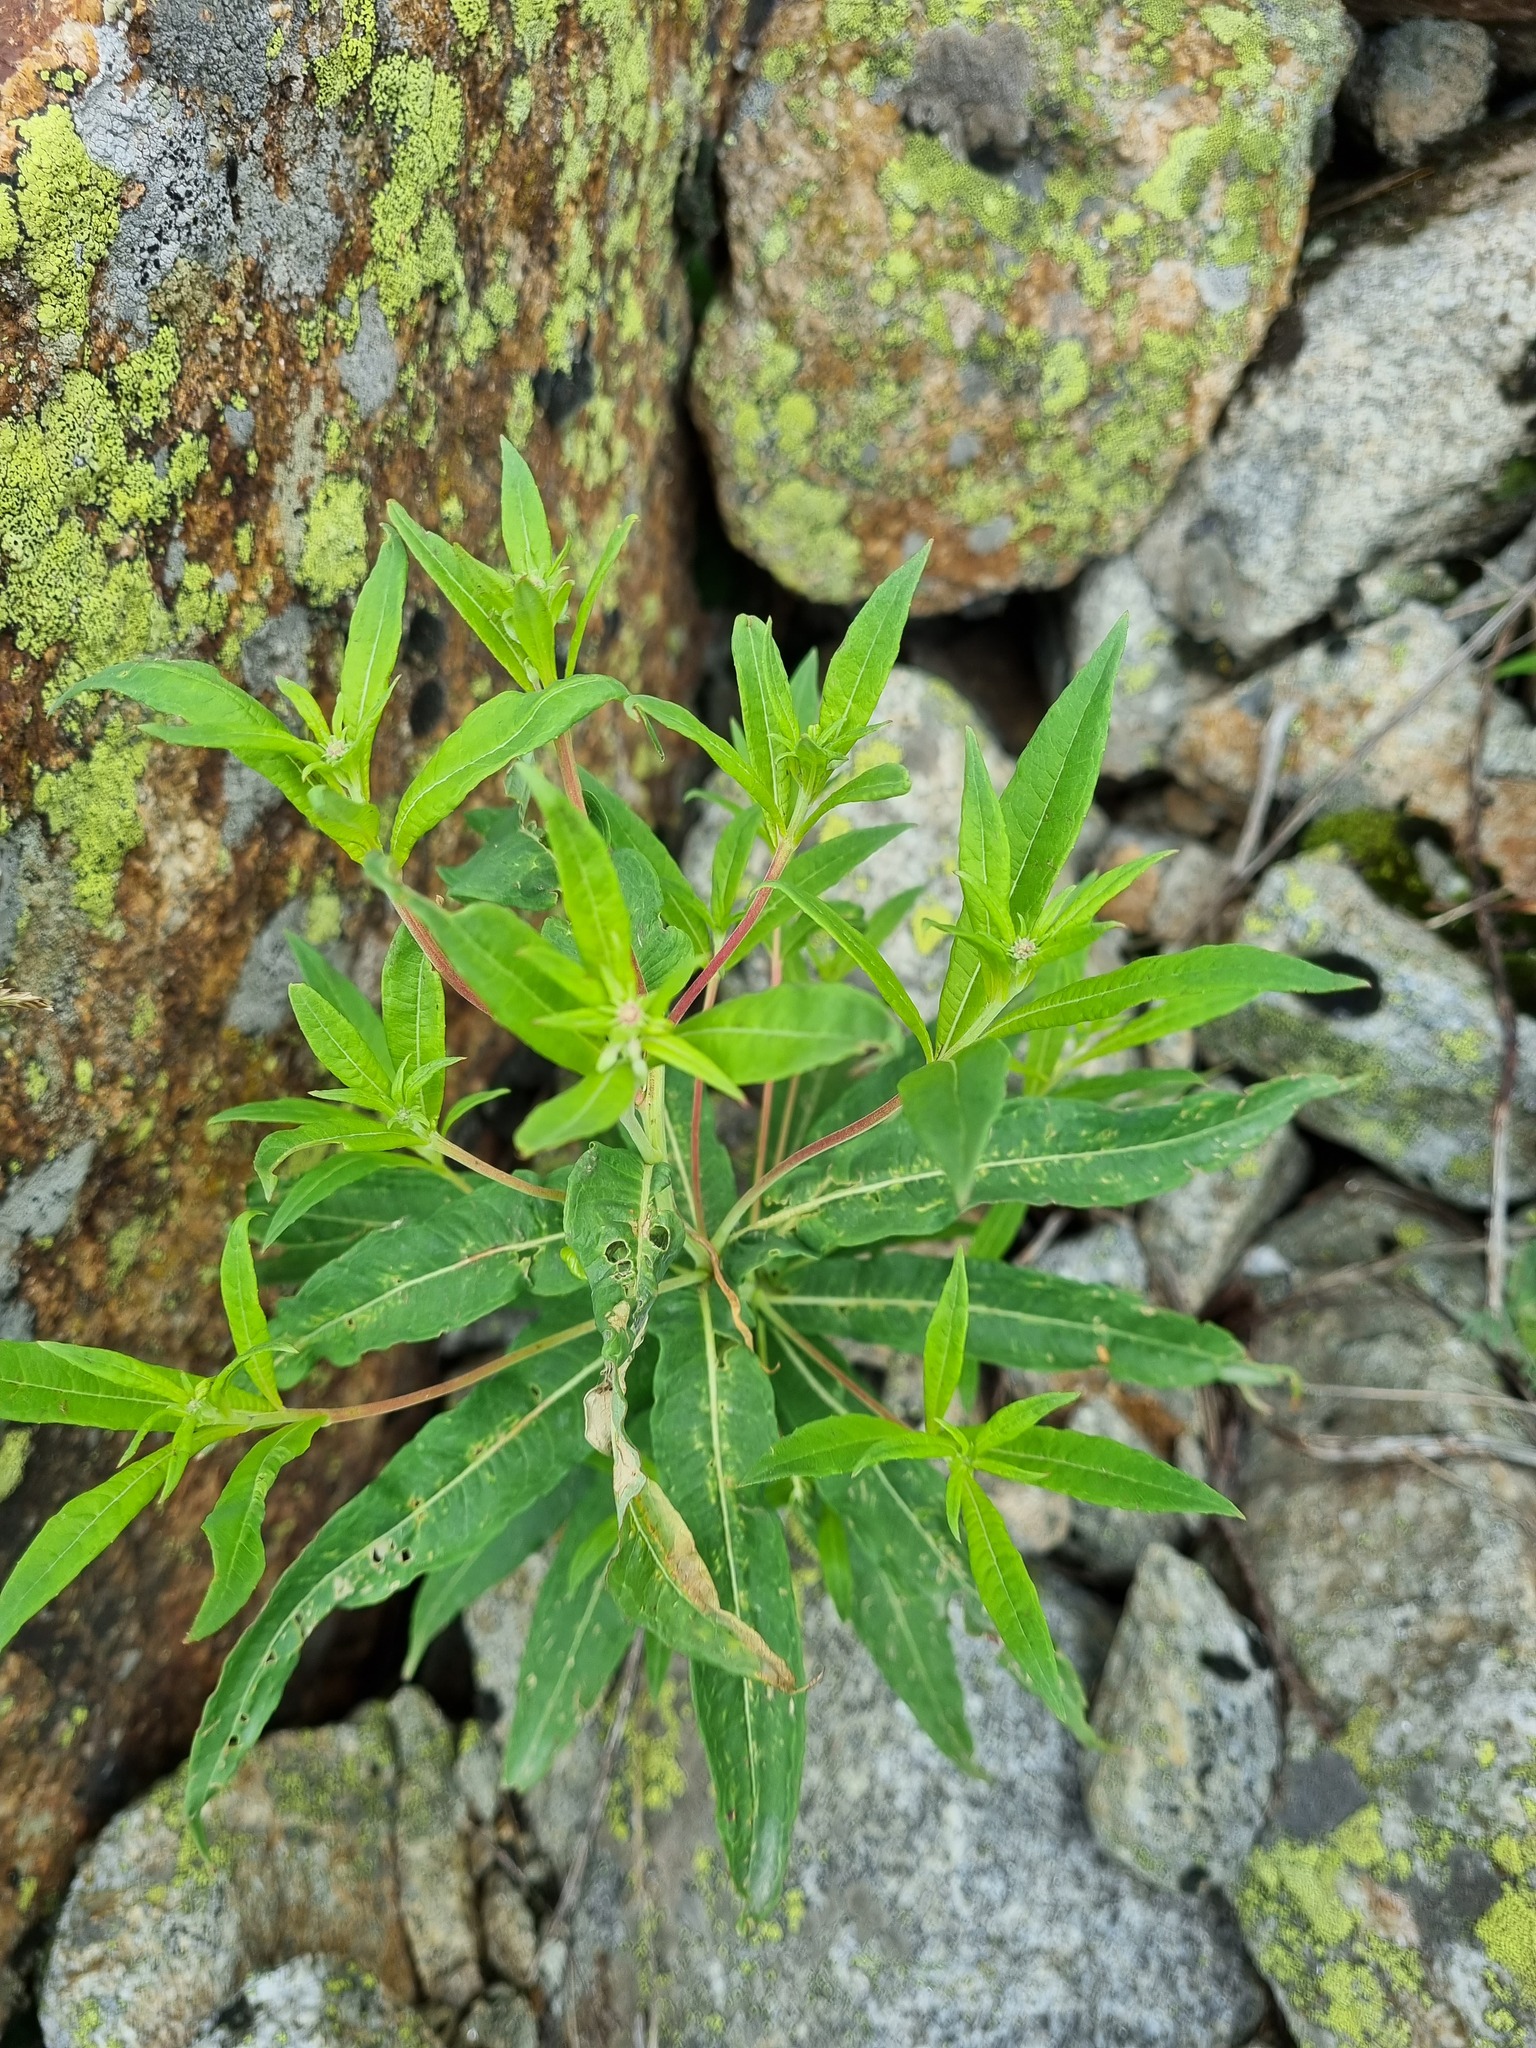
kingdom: Plantae
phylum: Tracheophyta
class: Magnoliopsida
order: Myrtales
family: Onagraceae
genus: Chamaenerion
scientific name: Chamaenerion angustifolium
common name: Fireweed
